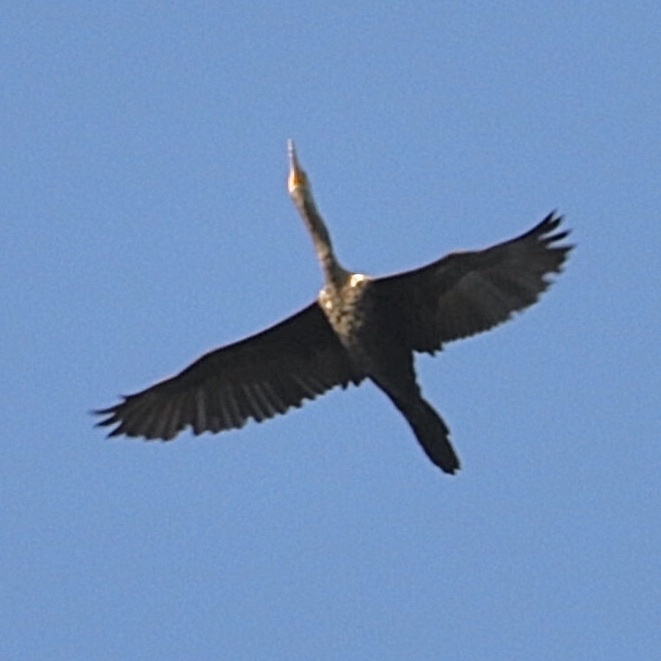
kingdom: Animalia
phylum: Chordata
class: Aves
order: Suliformes
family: Phalacrocoracidae
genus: Phalacrocorax
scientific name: Phalacrocorax brasilianus
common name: Neotropic cormorant
